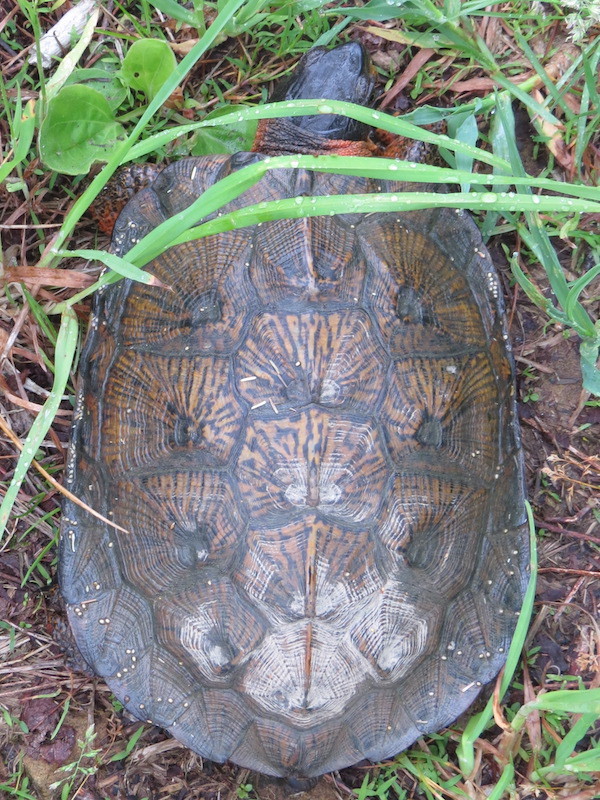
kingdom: Animalia
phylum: Chordata
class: Testudines
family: Emydidae
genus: Glyptemys
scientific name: Glyptemys insculpta
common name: Wood turtle
